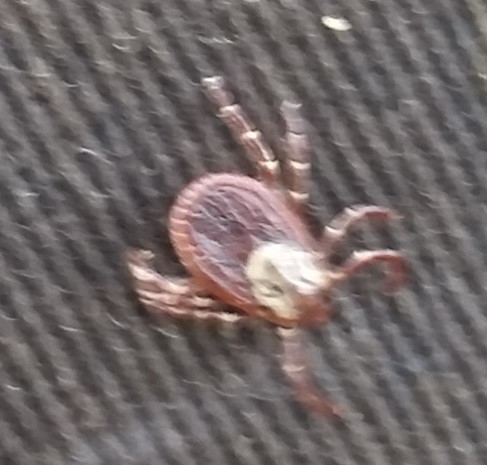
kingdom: Animalia
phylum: Arthropoda
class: Arachnida
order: Ixodida
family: Ixodidae
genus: Dermacentor
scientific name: Dermacentor variabilis
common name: American dog tick
